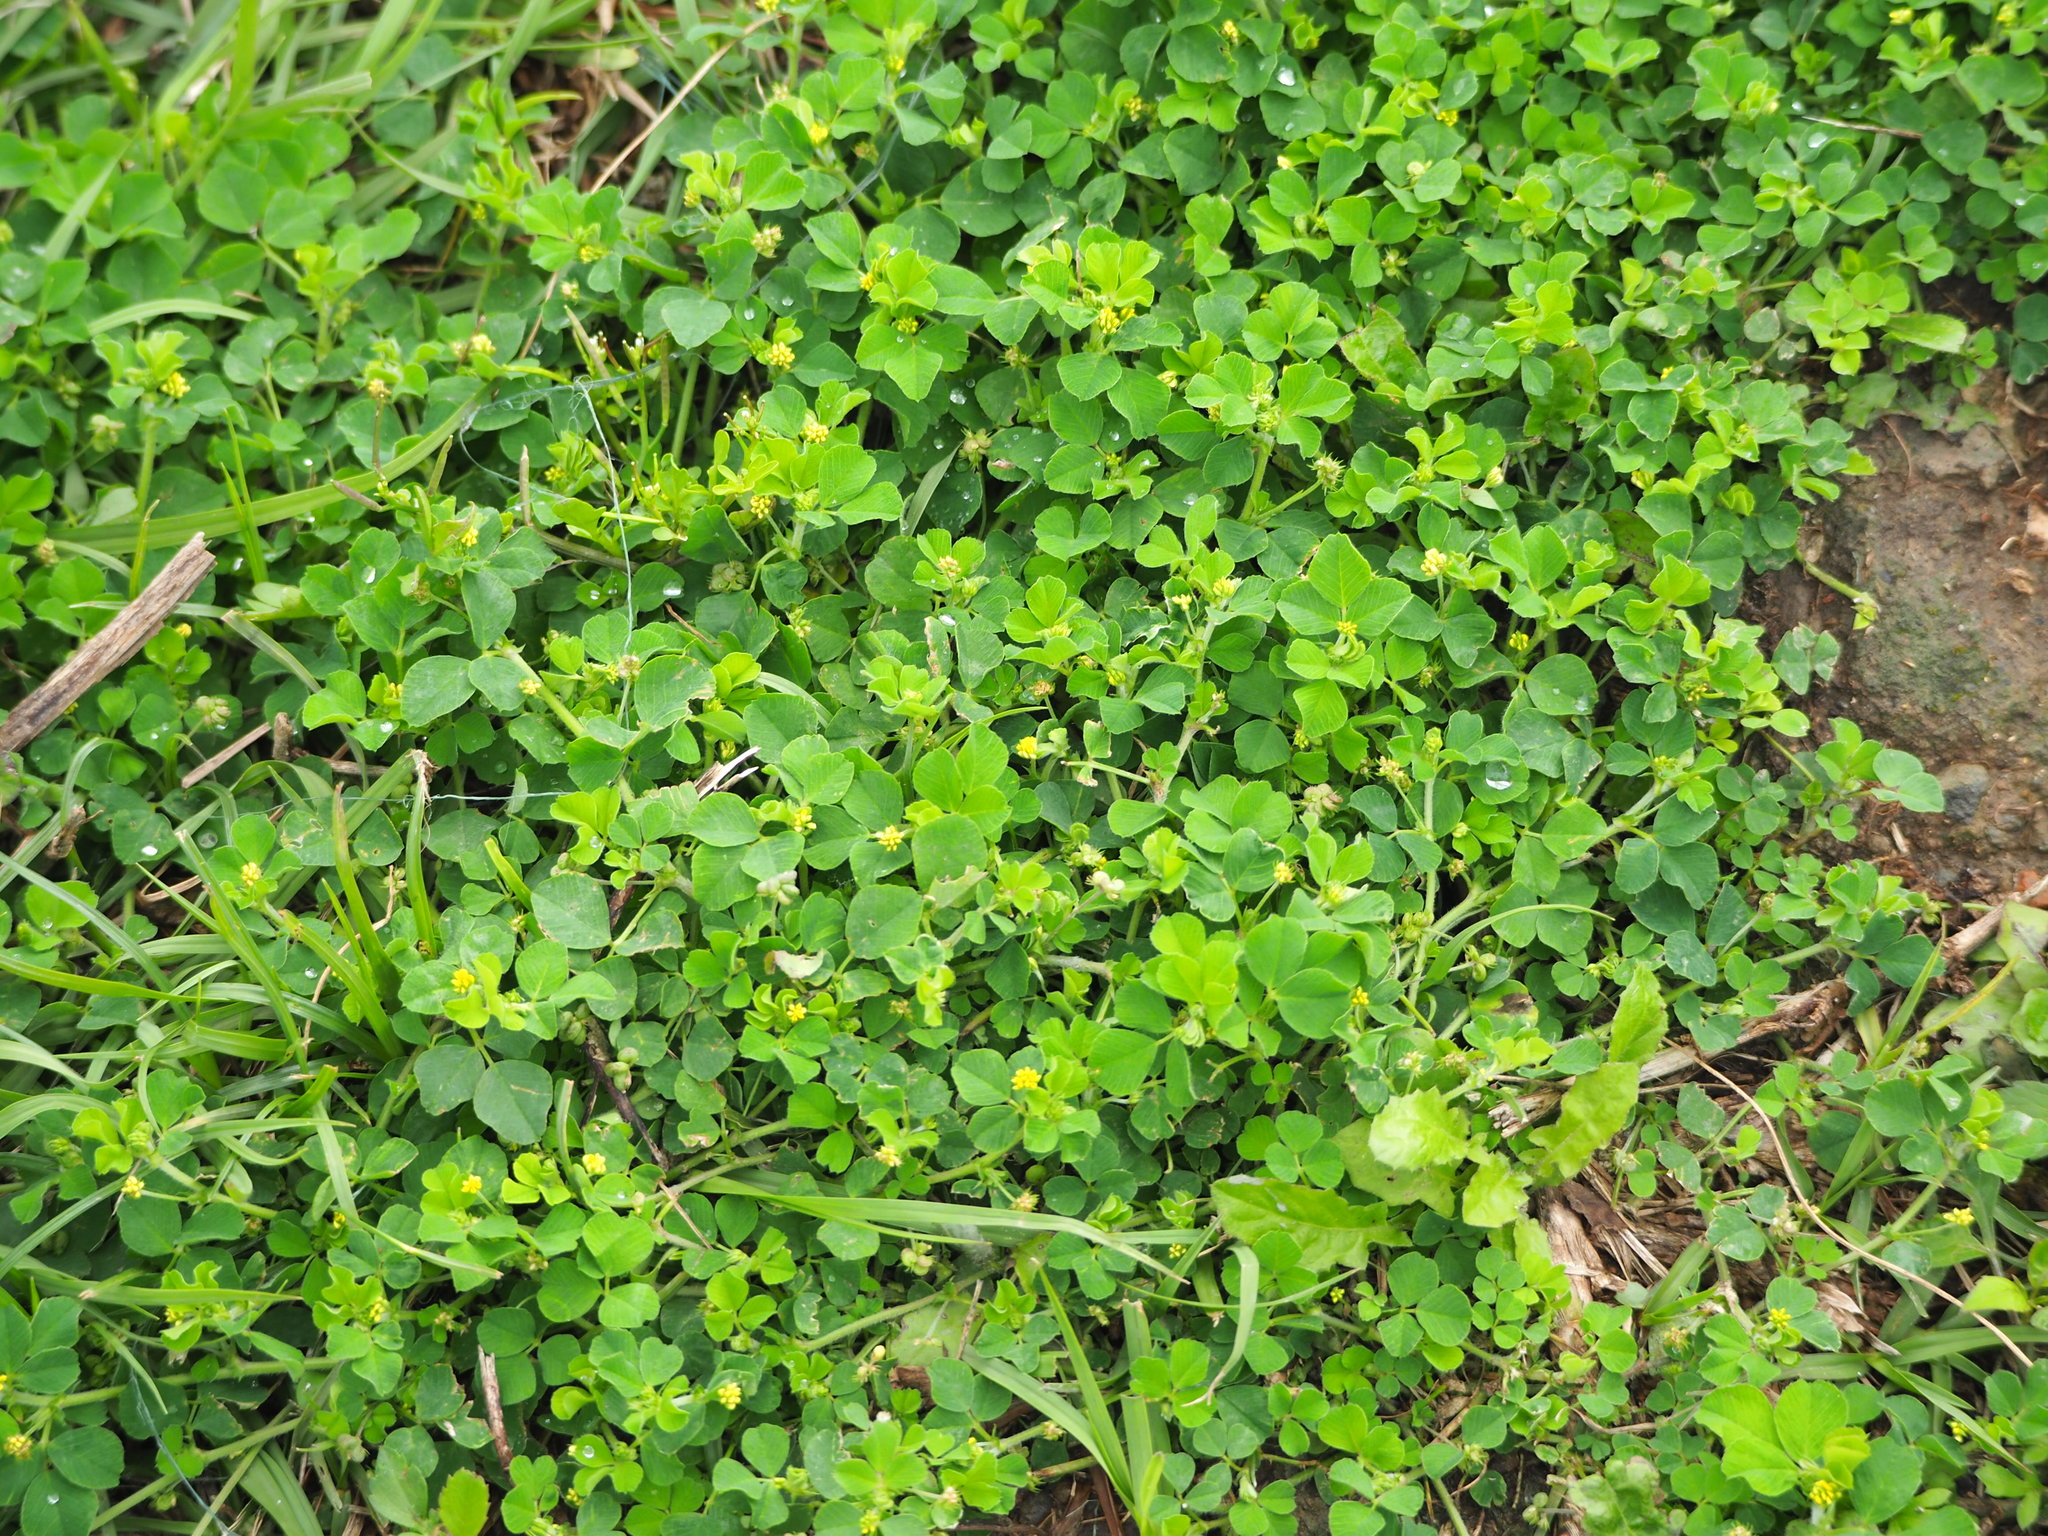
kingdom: Plantae
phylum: Tracheophyta
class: Magnoliopsida
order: Fabales
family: Fabaceae
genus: Medicago
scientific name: Medicago lupulina
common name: Black medick
